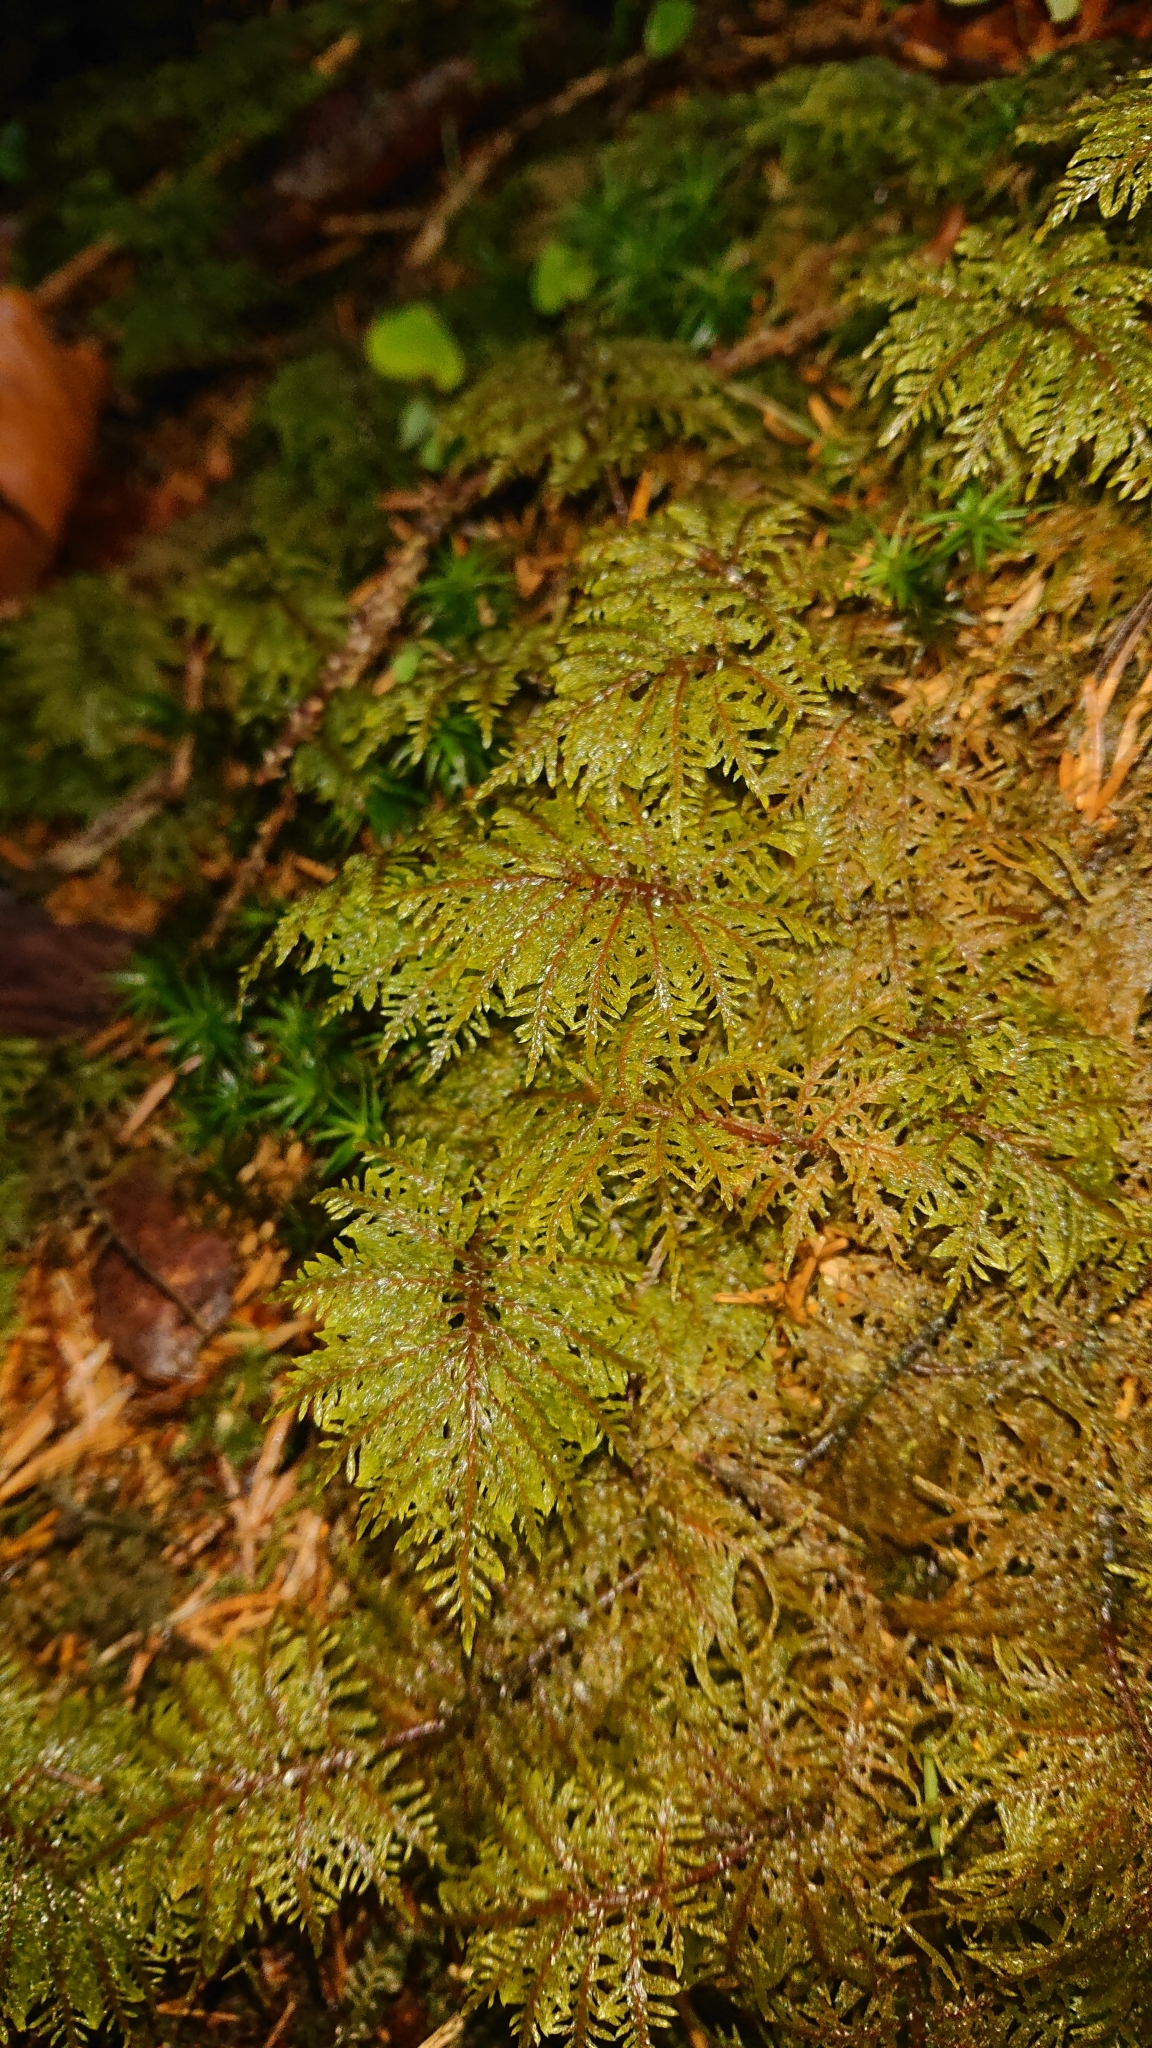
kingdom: Plantae
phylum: Bryophyta
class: Bryopsida
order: Hypnales
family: Hylocomiaceae
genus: Hylocomium
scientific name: Hylocomium splendens
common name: Stairstep moss
